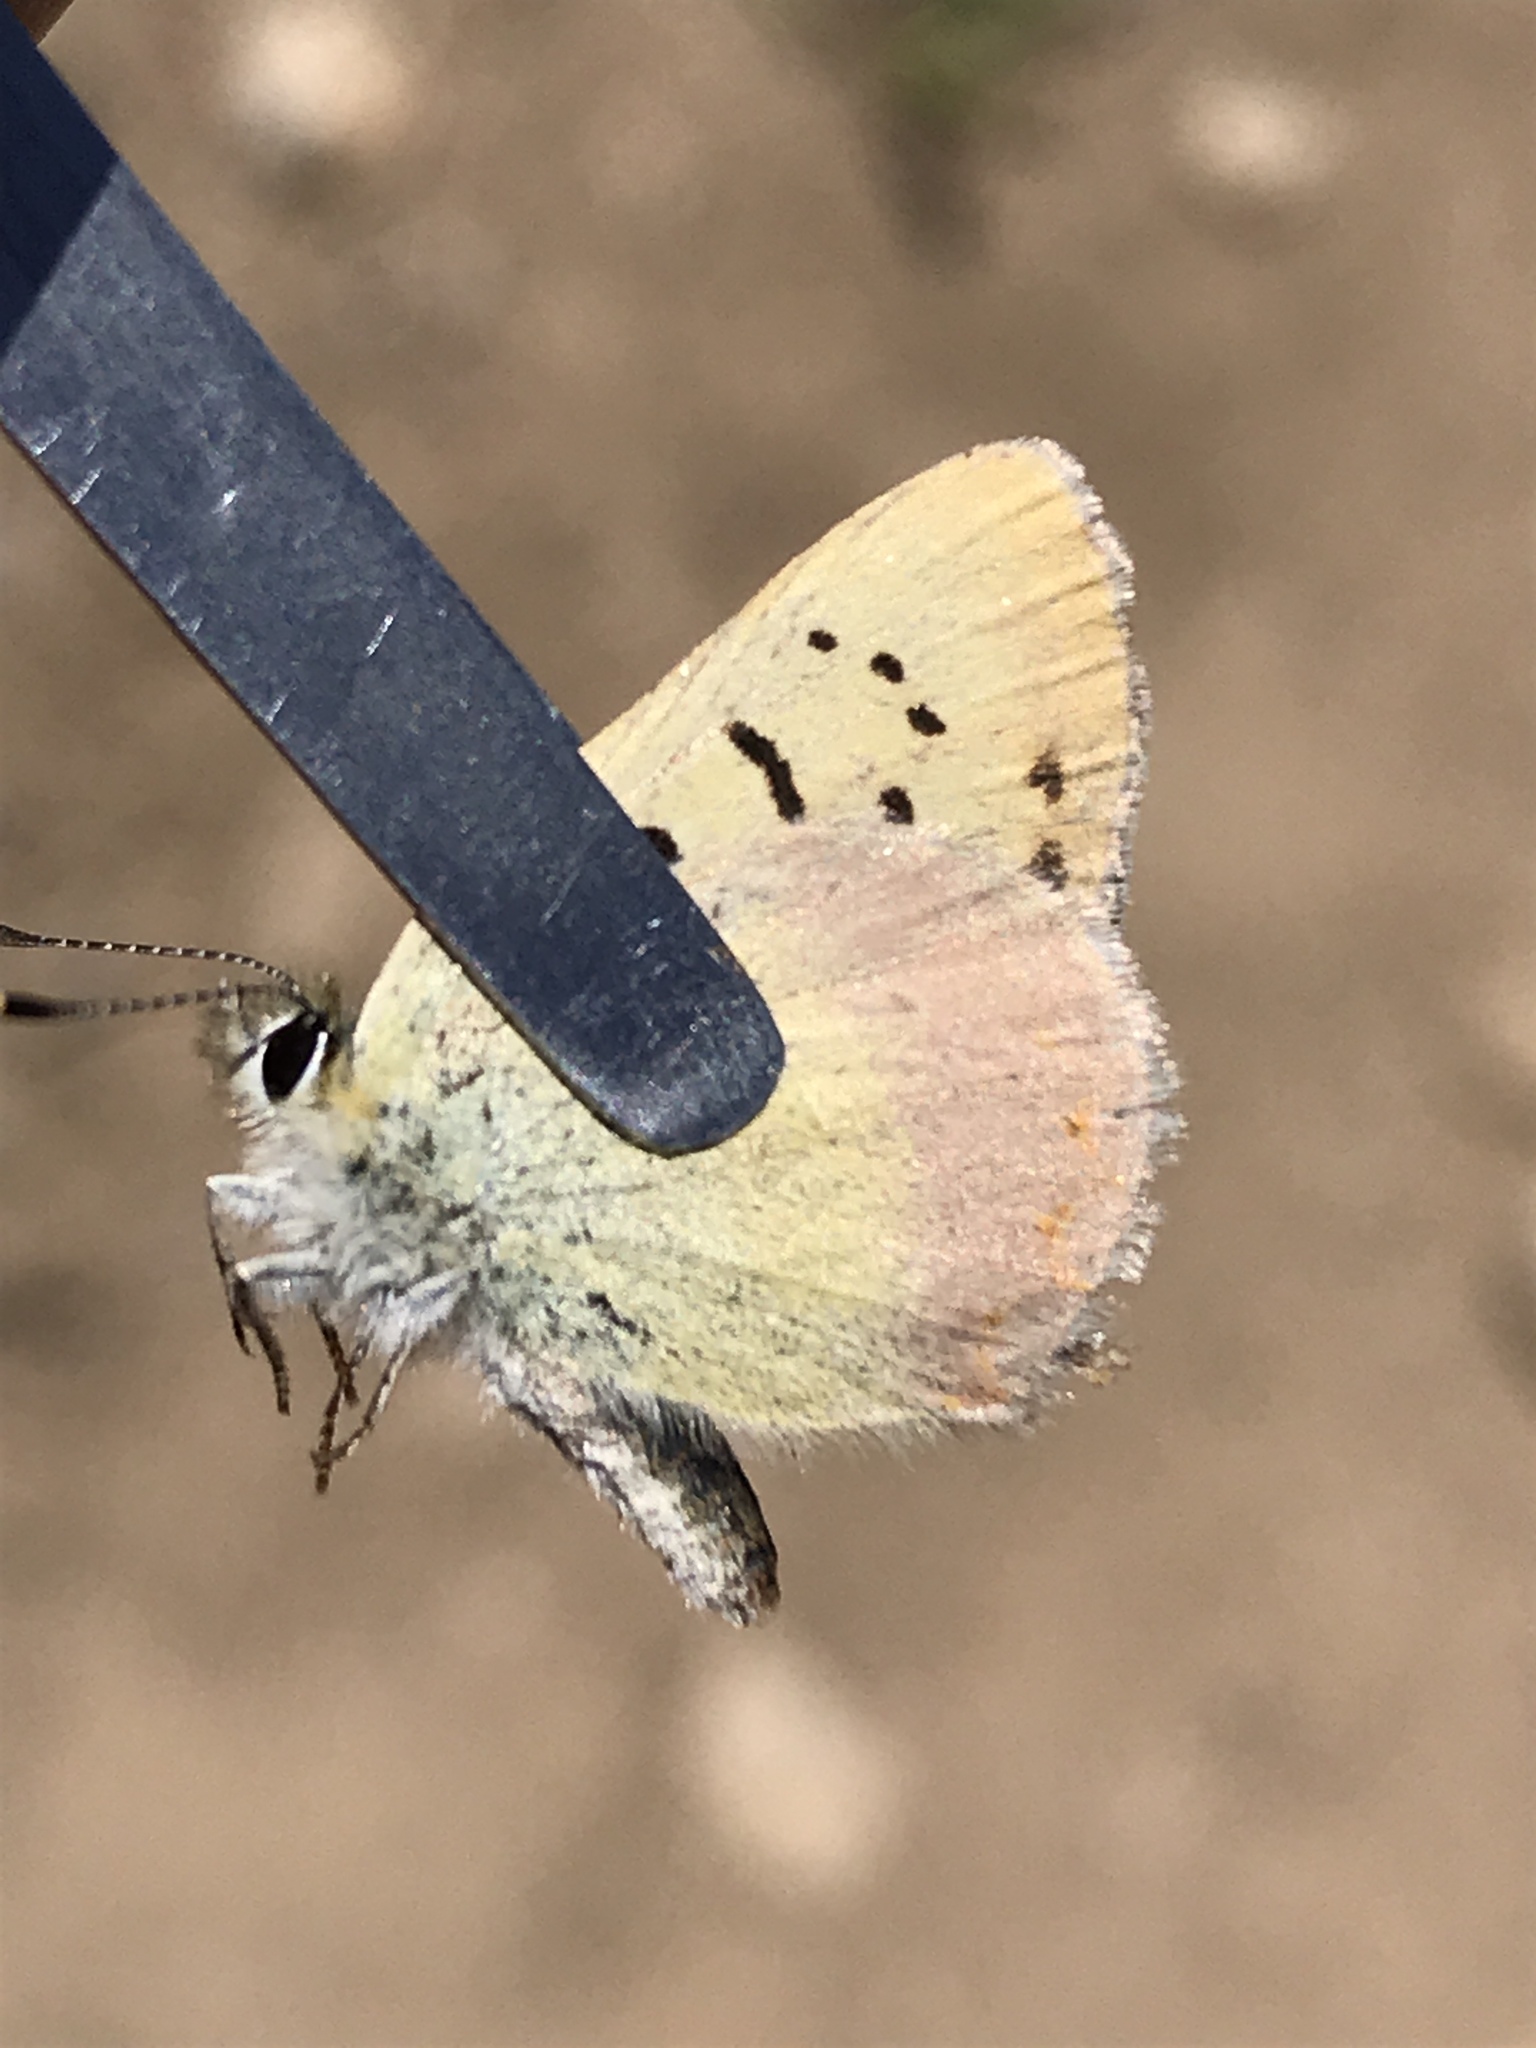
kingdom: Animalia
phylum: Arthropoda
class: Insecta
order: Lepidoptera
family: Lycaenidae
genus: Tharsalea
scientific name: Tharsalea nivalis
